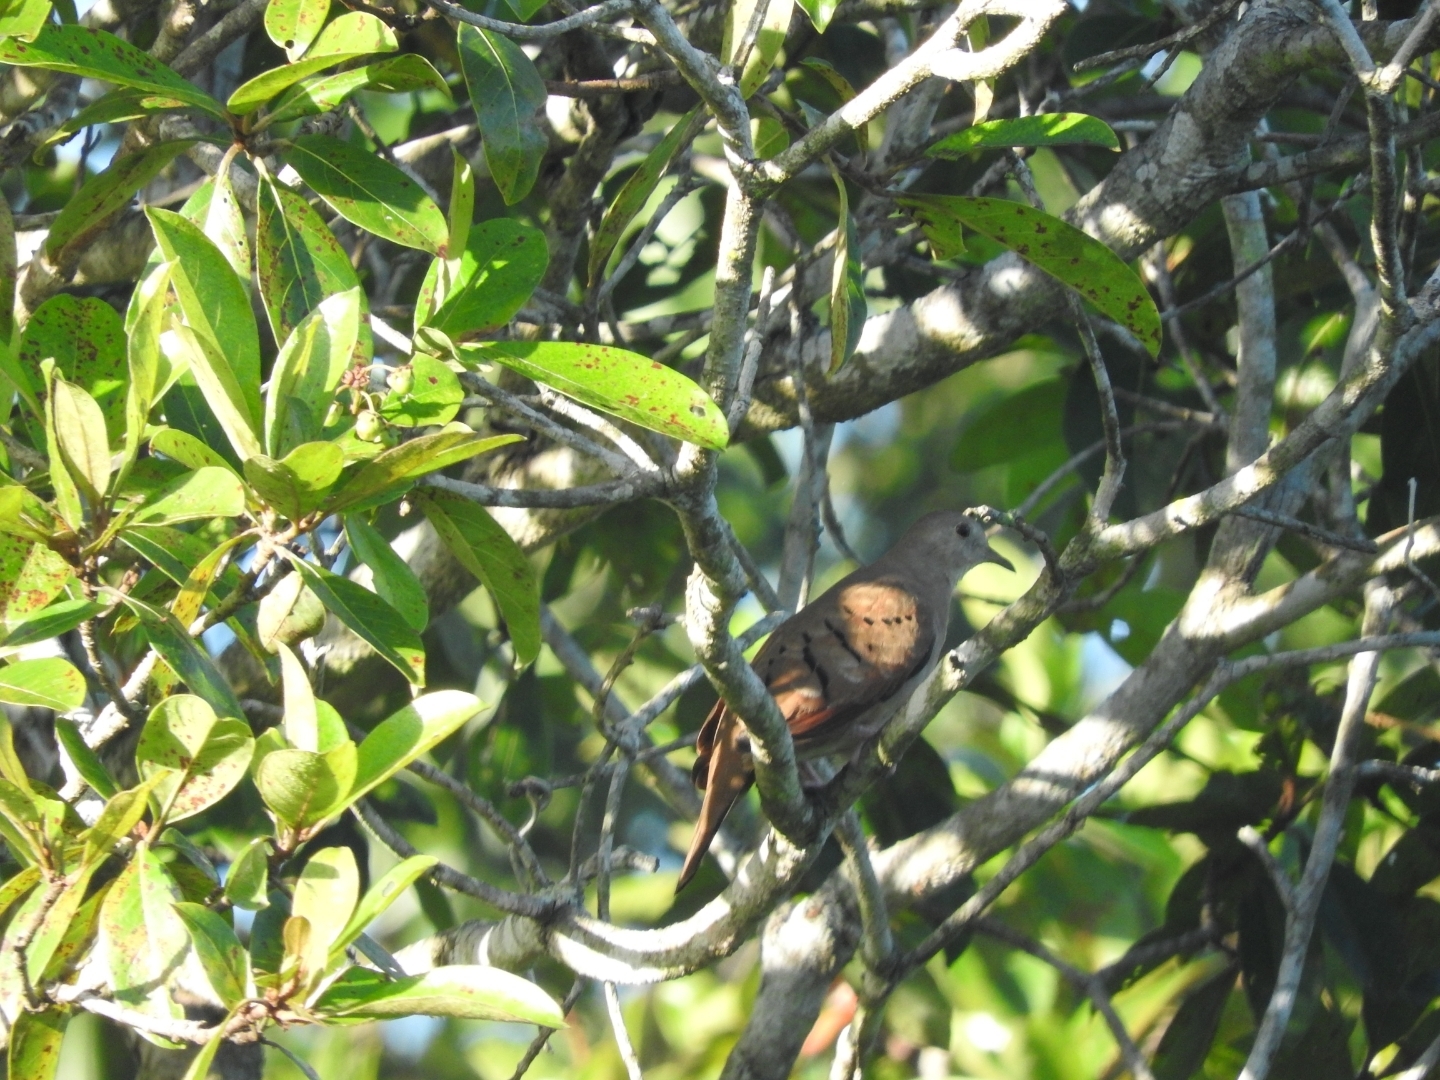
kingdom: Animalia
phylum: Chordata
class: Aves
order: Columbiformes
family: Columbidae
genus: Columbina
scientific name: Columbina talpacoti
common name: Ruddy ground dove
